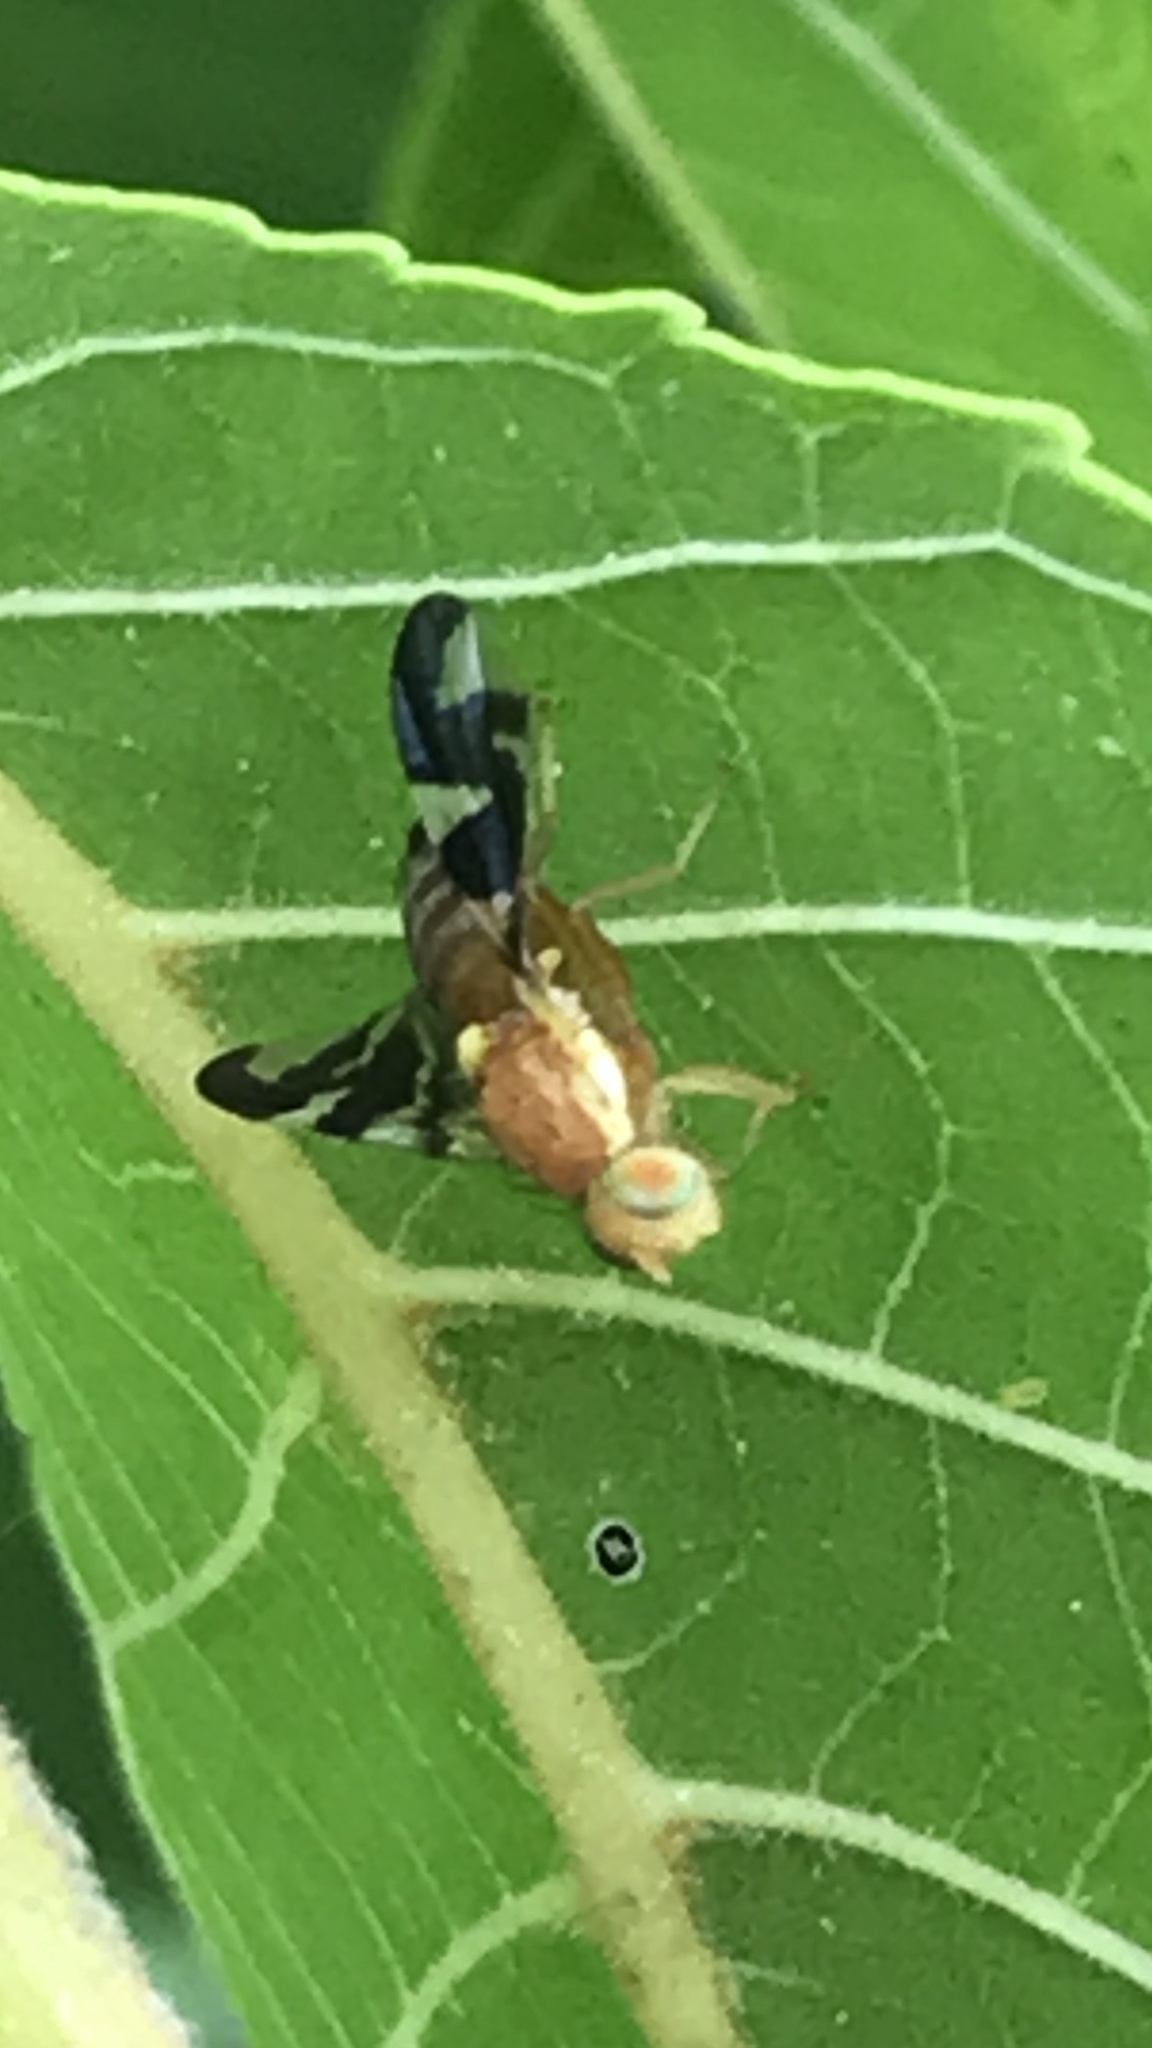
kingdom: Animalia
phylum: Arthropoda
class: Insecta
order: Diptera
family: Tephritidae
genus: Rhagoletis
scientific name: Rhagoletis suavis
